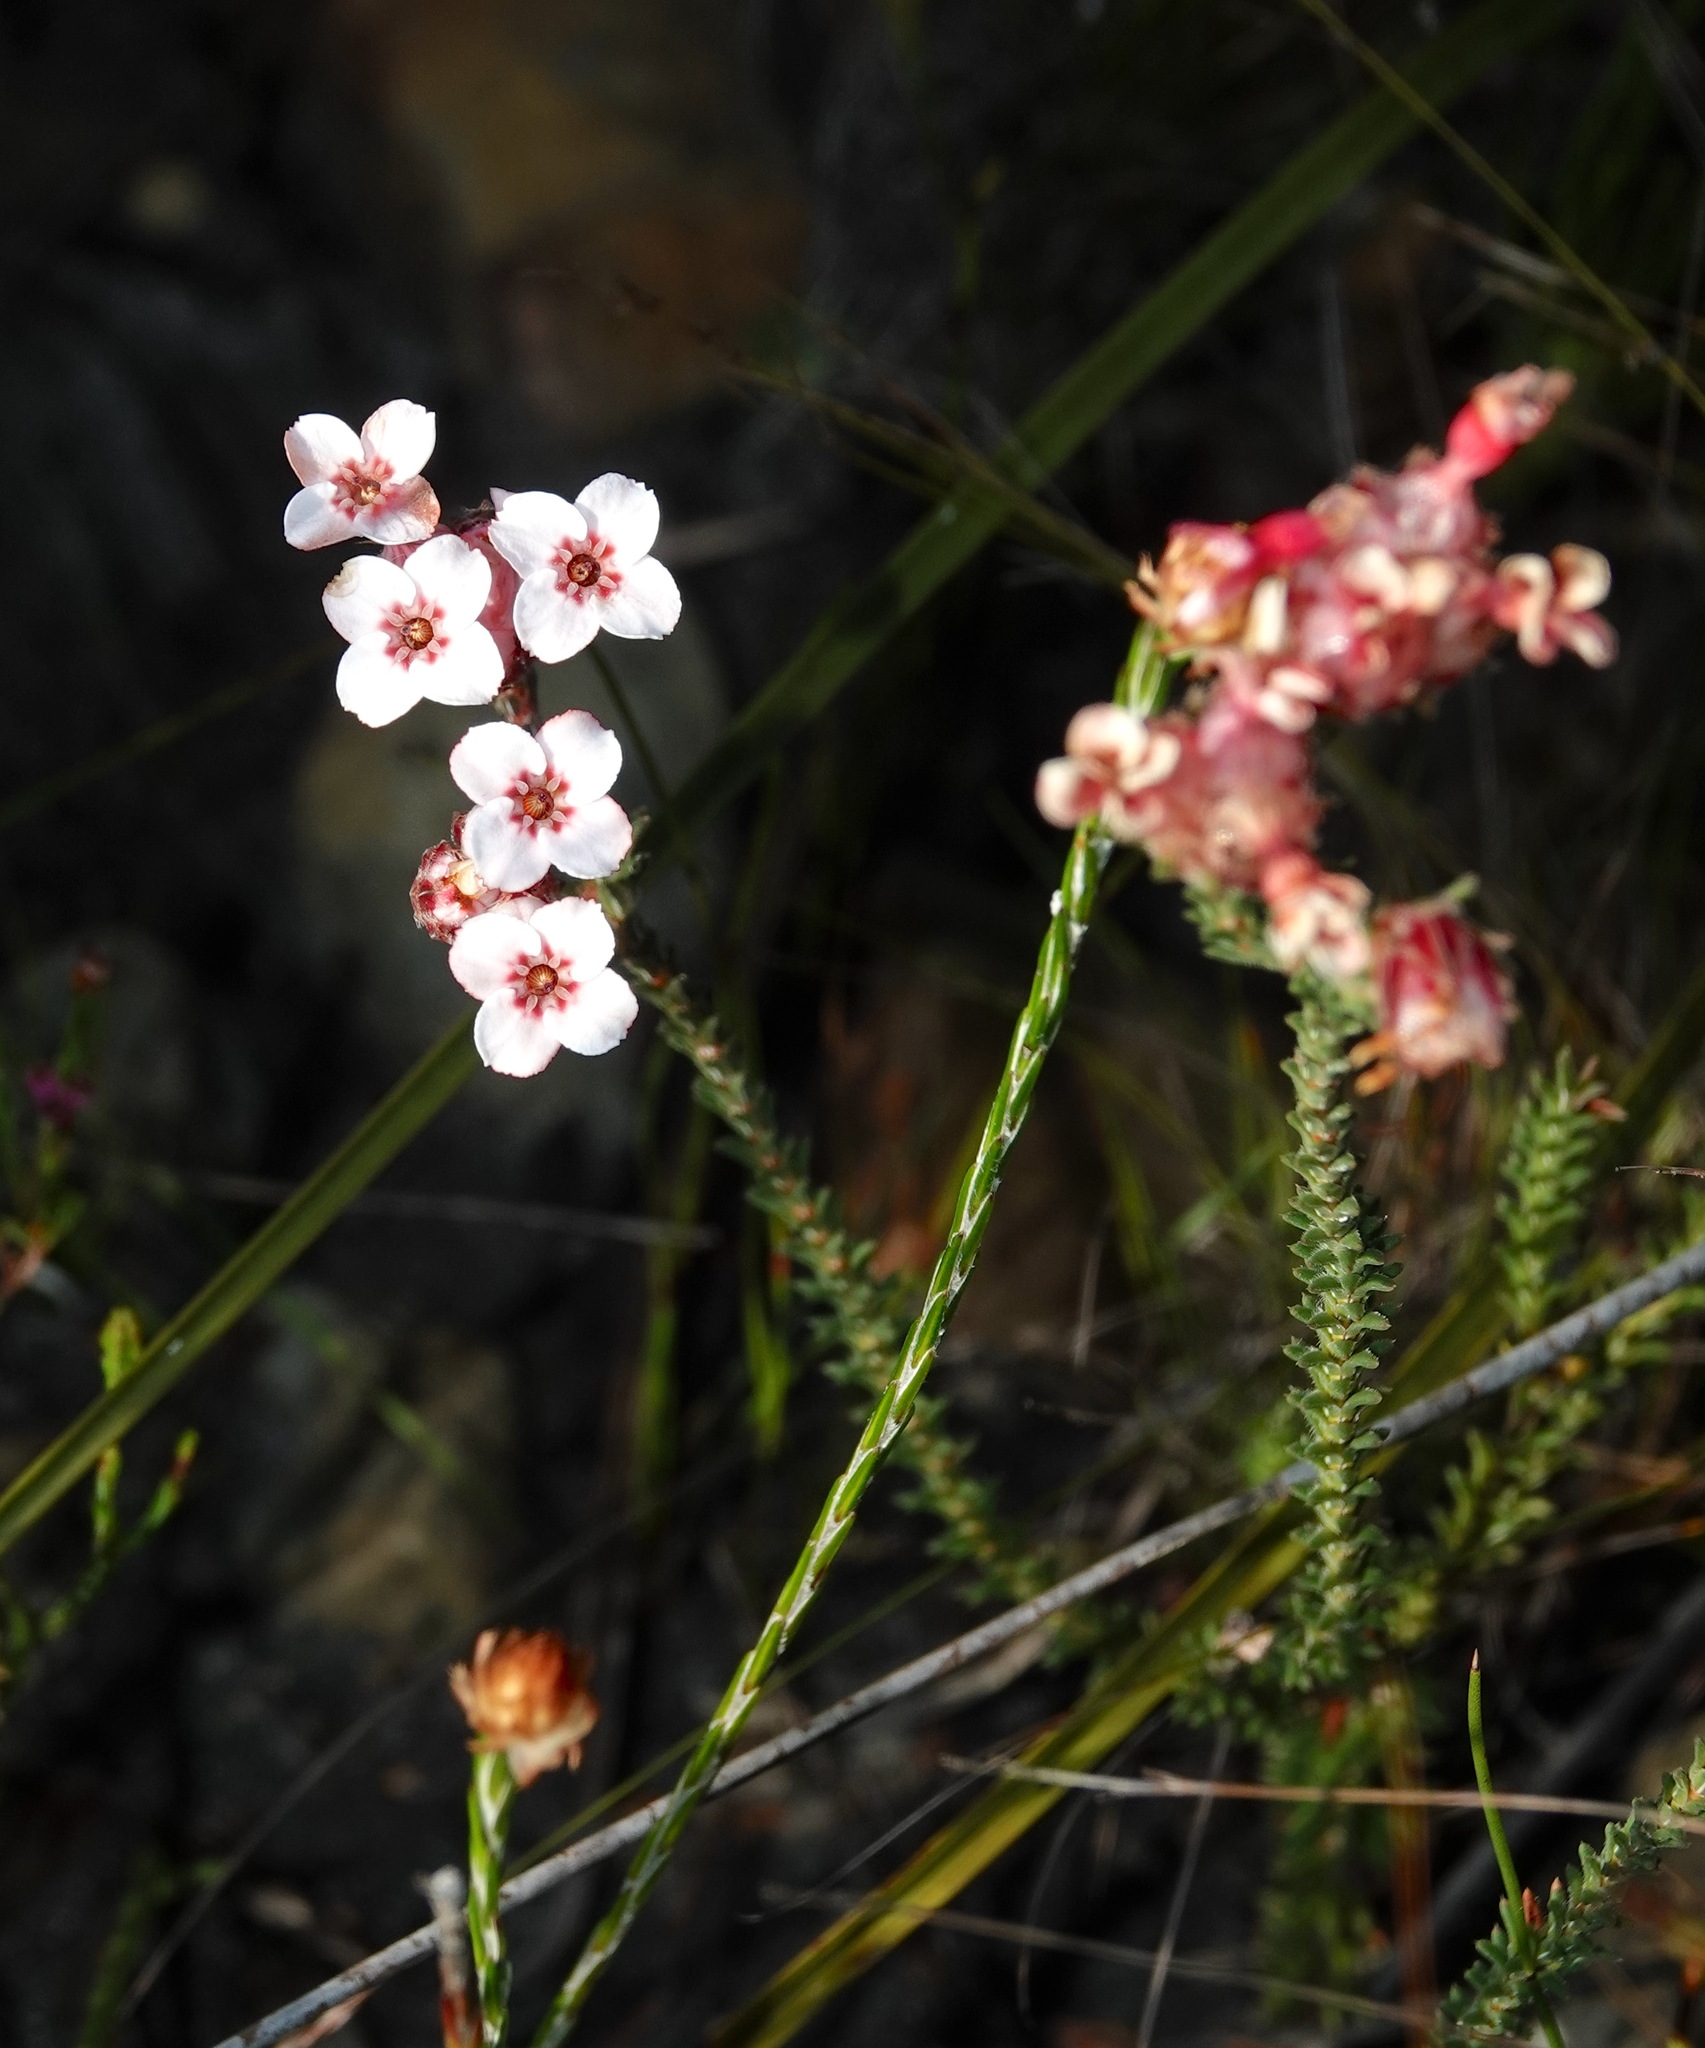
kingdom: Plantae
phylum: Tracheophyta
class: Magnoliopsida
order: Ericales
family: Ericaceae
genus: Erica
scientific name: Erica ampullacea
